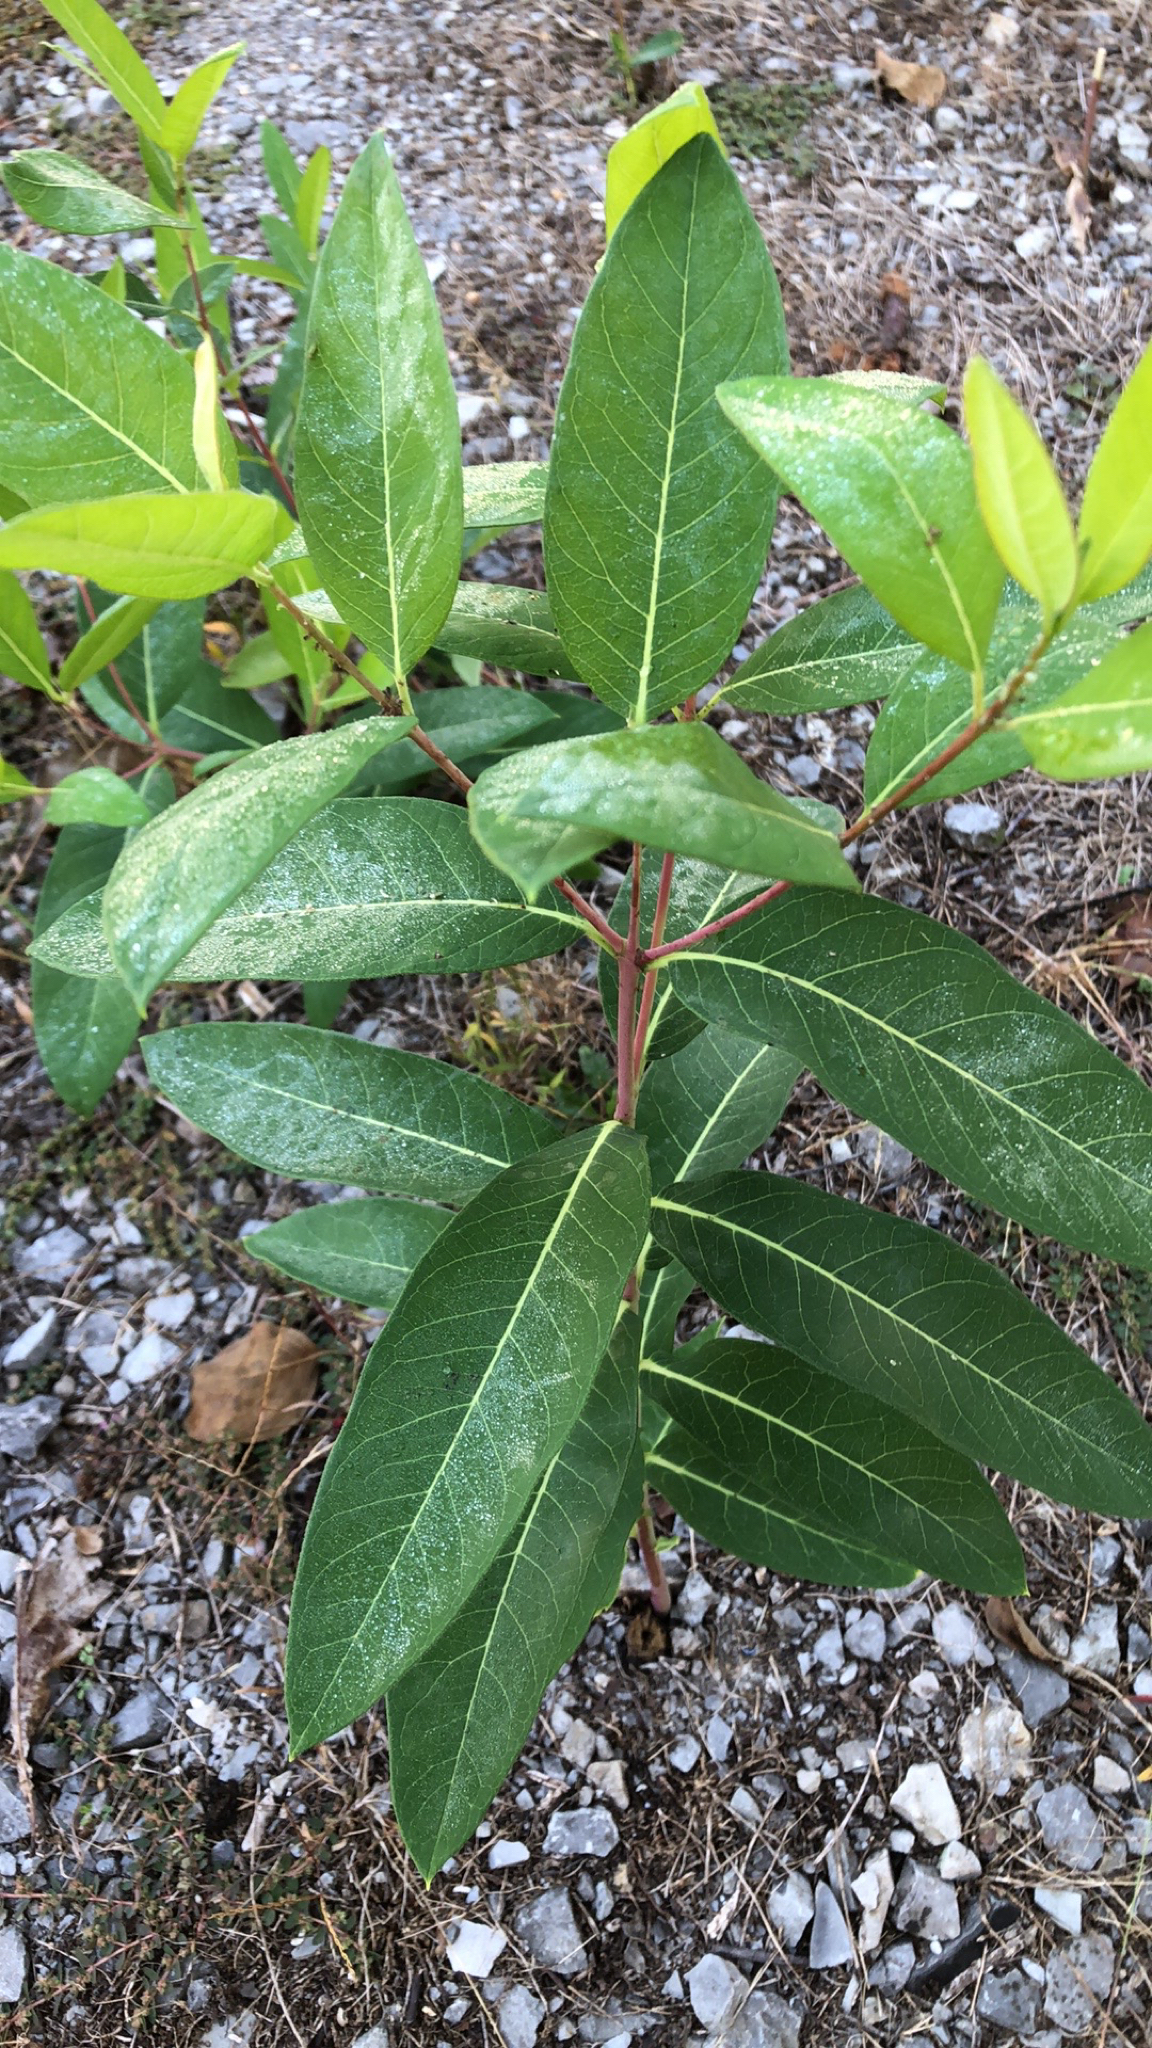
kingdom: Plantae
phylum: Tracheophyta
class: Magnoliopsida
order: Gentianales
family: Apocynaceae
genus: Apocynum
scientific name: Apocynum cannabinum
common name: Hemp dogbane
